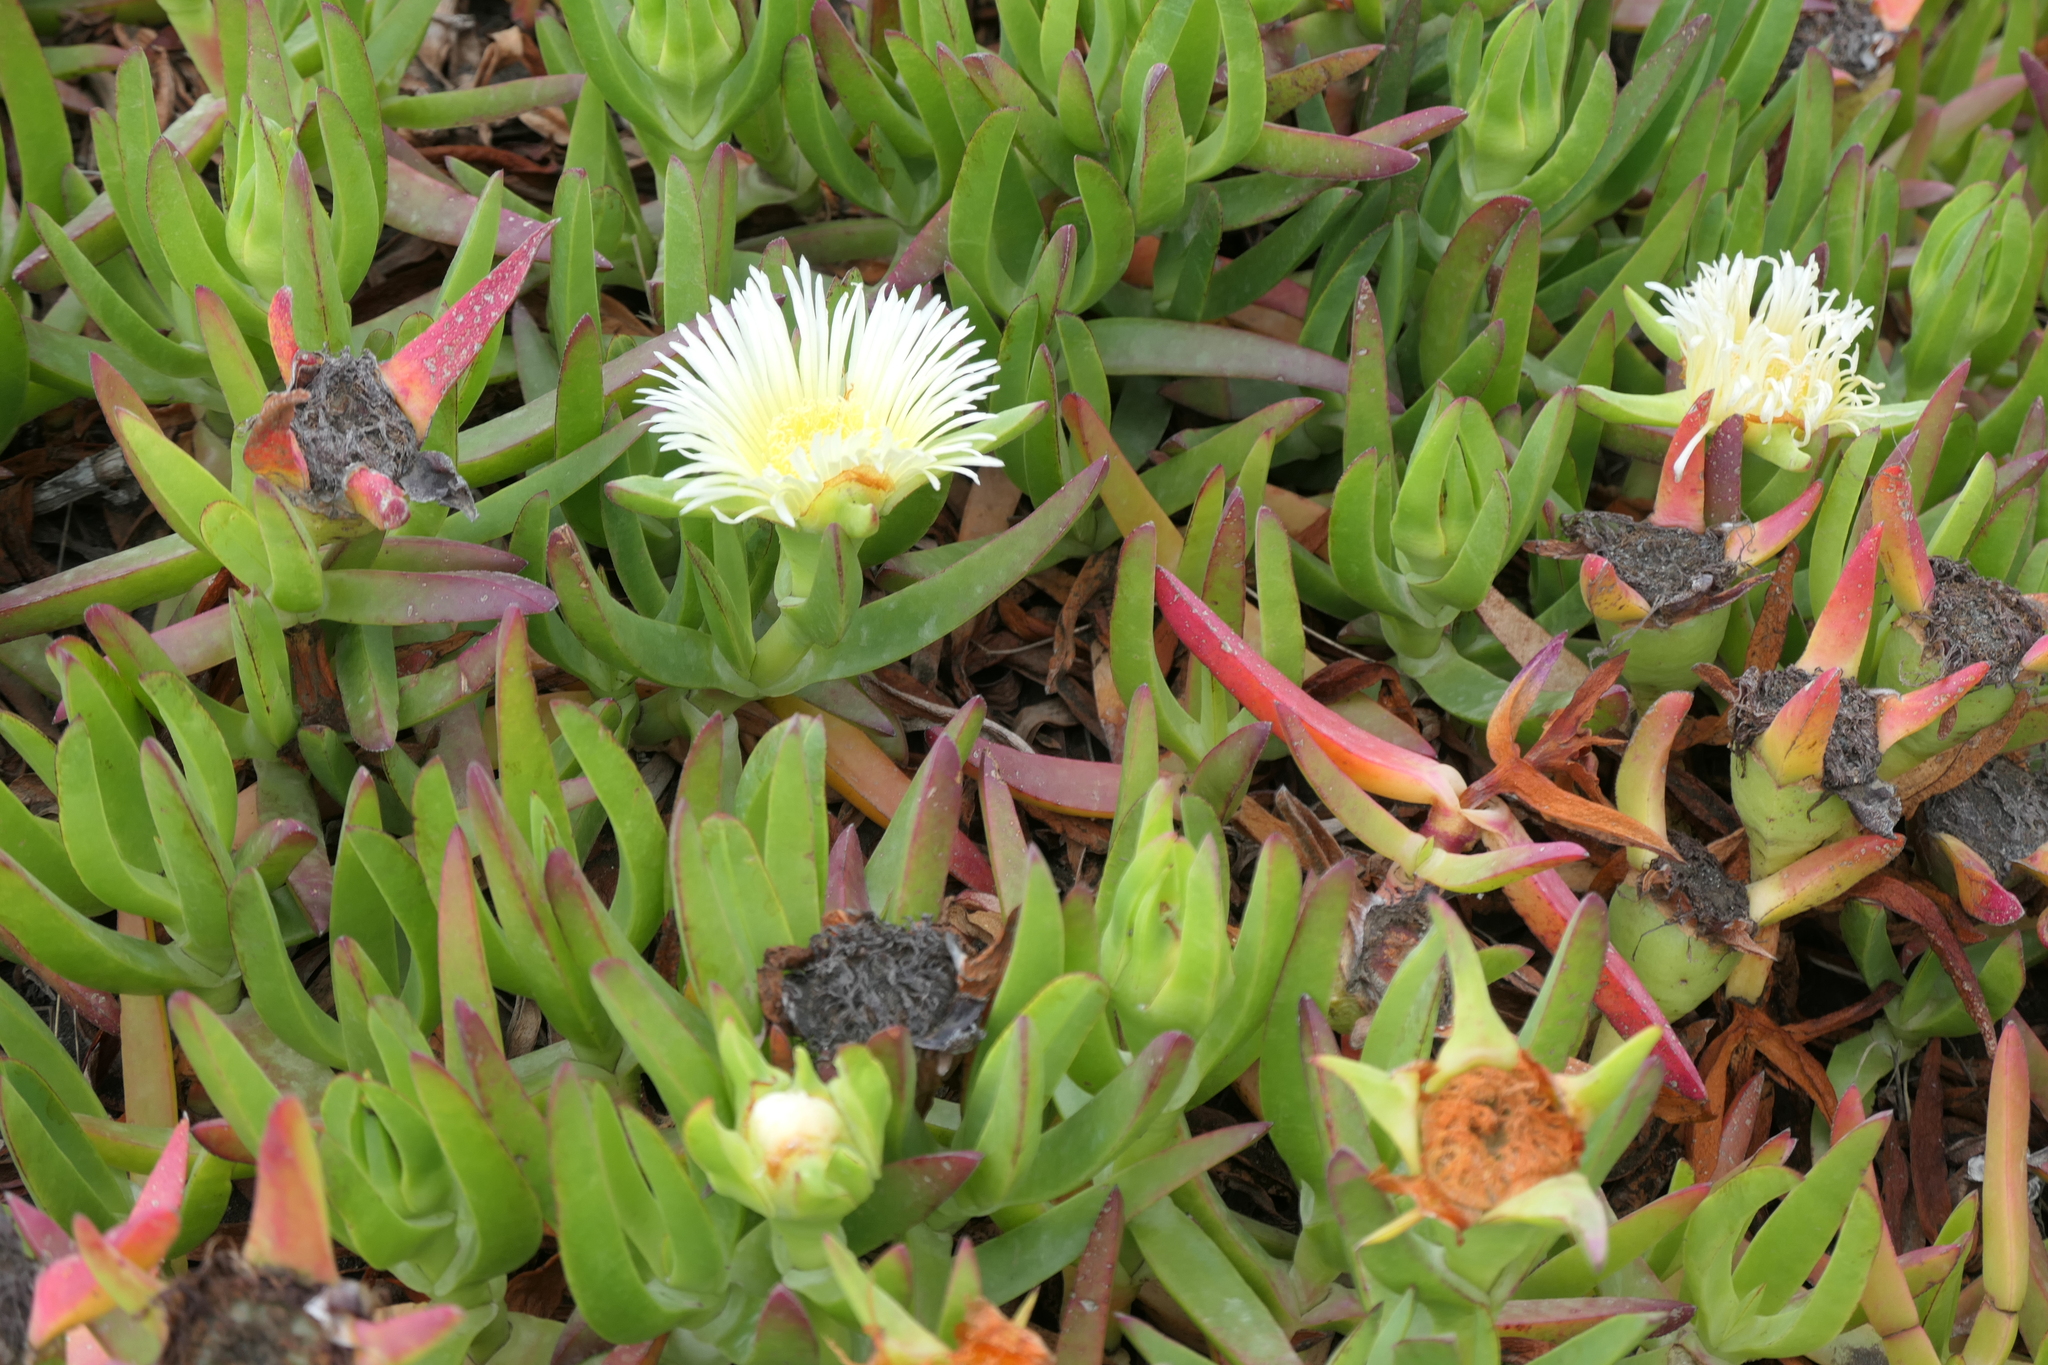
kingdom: Plantae
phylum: Tracheophyta
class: Magnoliopsida
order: Caryophyllales
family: Aizoaceae
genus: Carpobrotus
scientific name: Carpobrotus edulis
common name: Hottentot-fig
